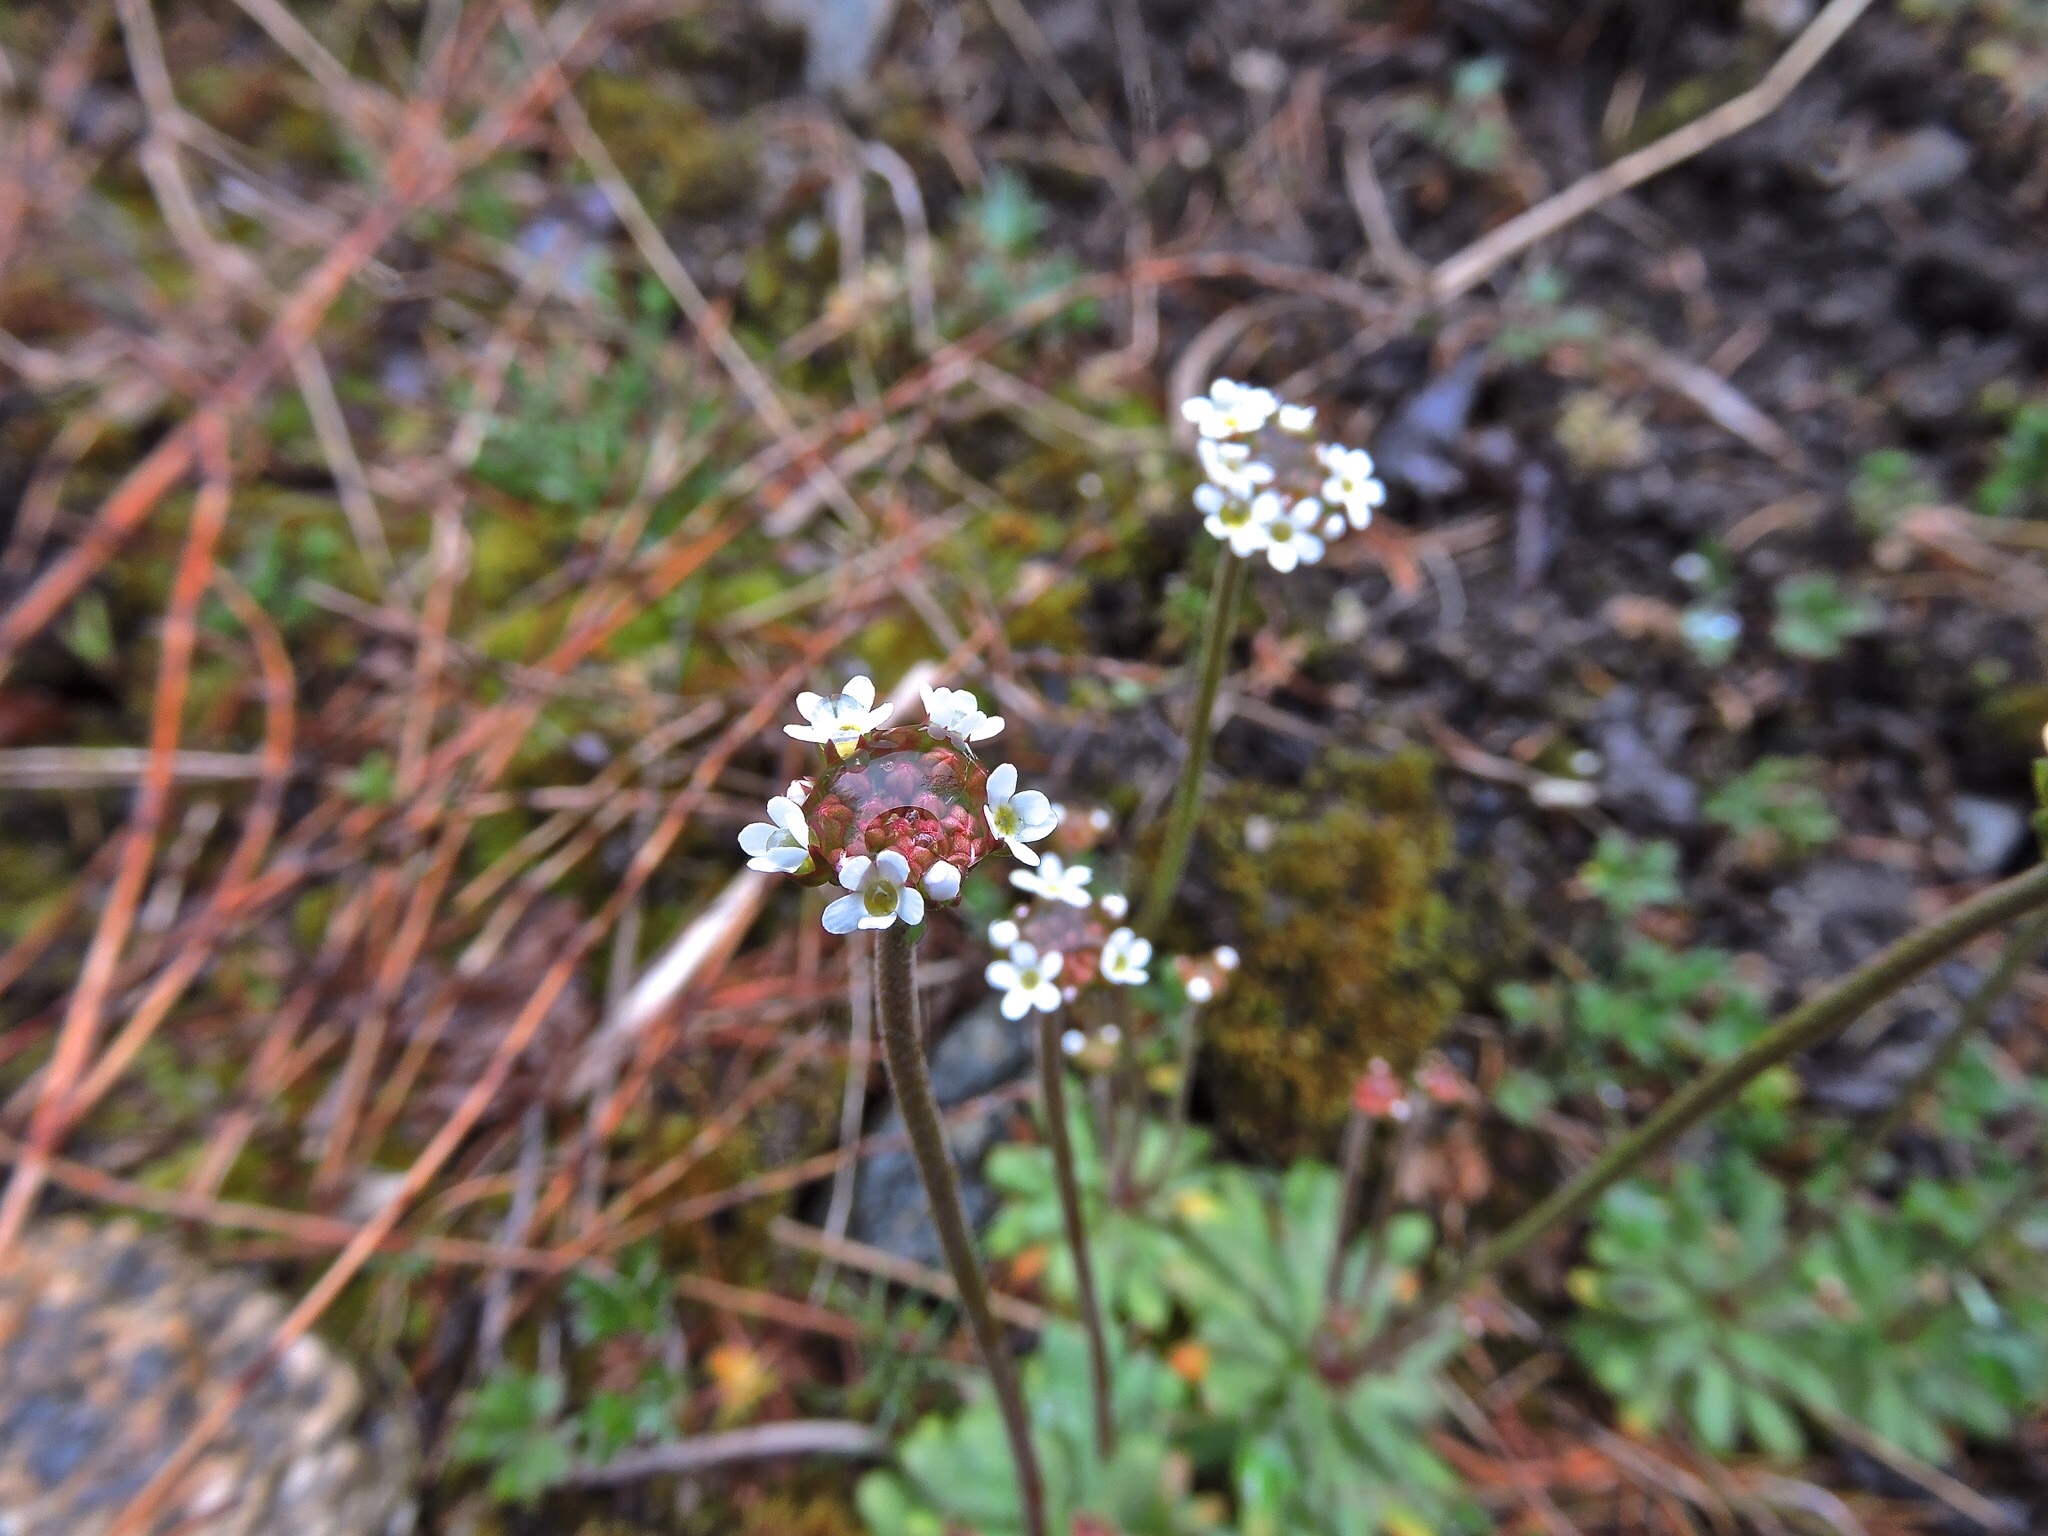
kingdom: Plantae
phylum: Tracheophyta
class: Magnoliopsida
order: Ericales
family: Primulaceae
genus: Androsace
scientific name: Androsace septentrionalis
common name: Hairy northern fairy-candelabra
